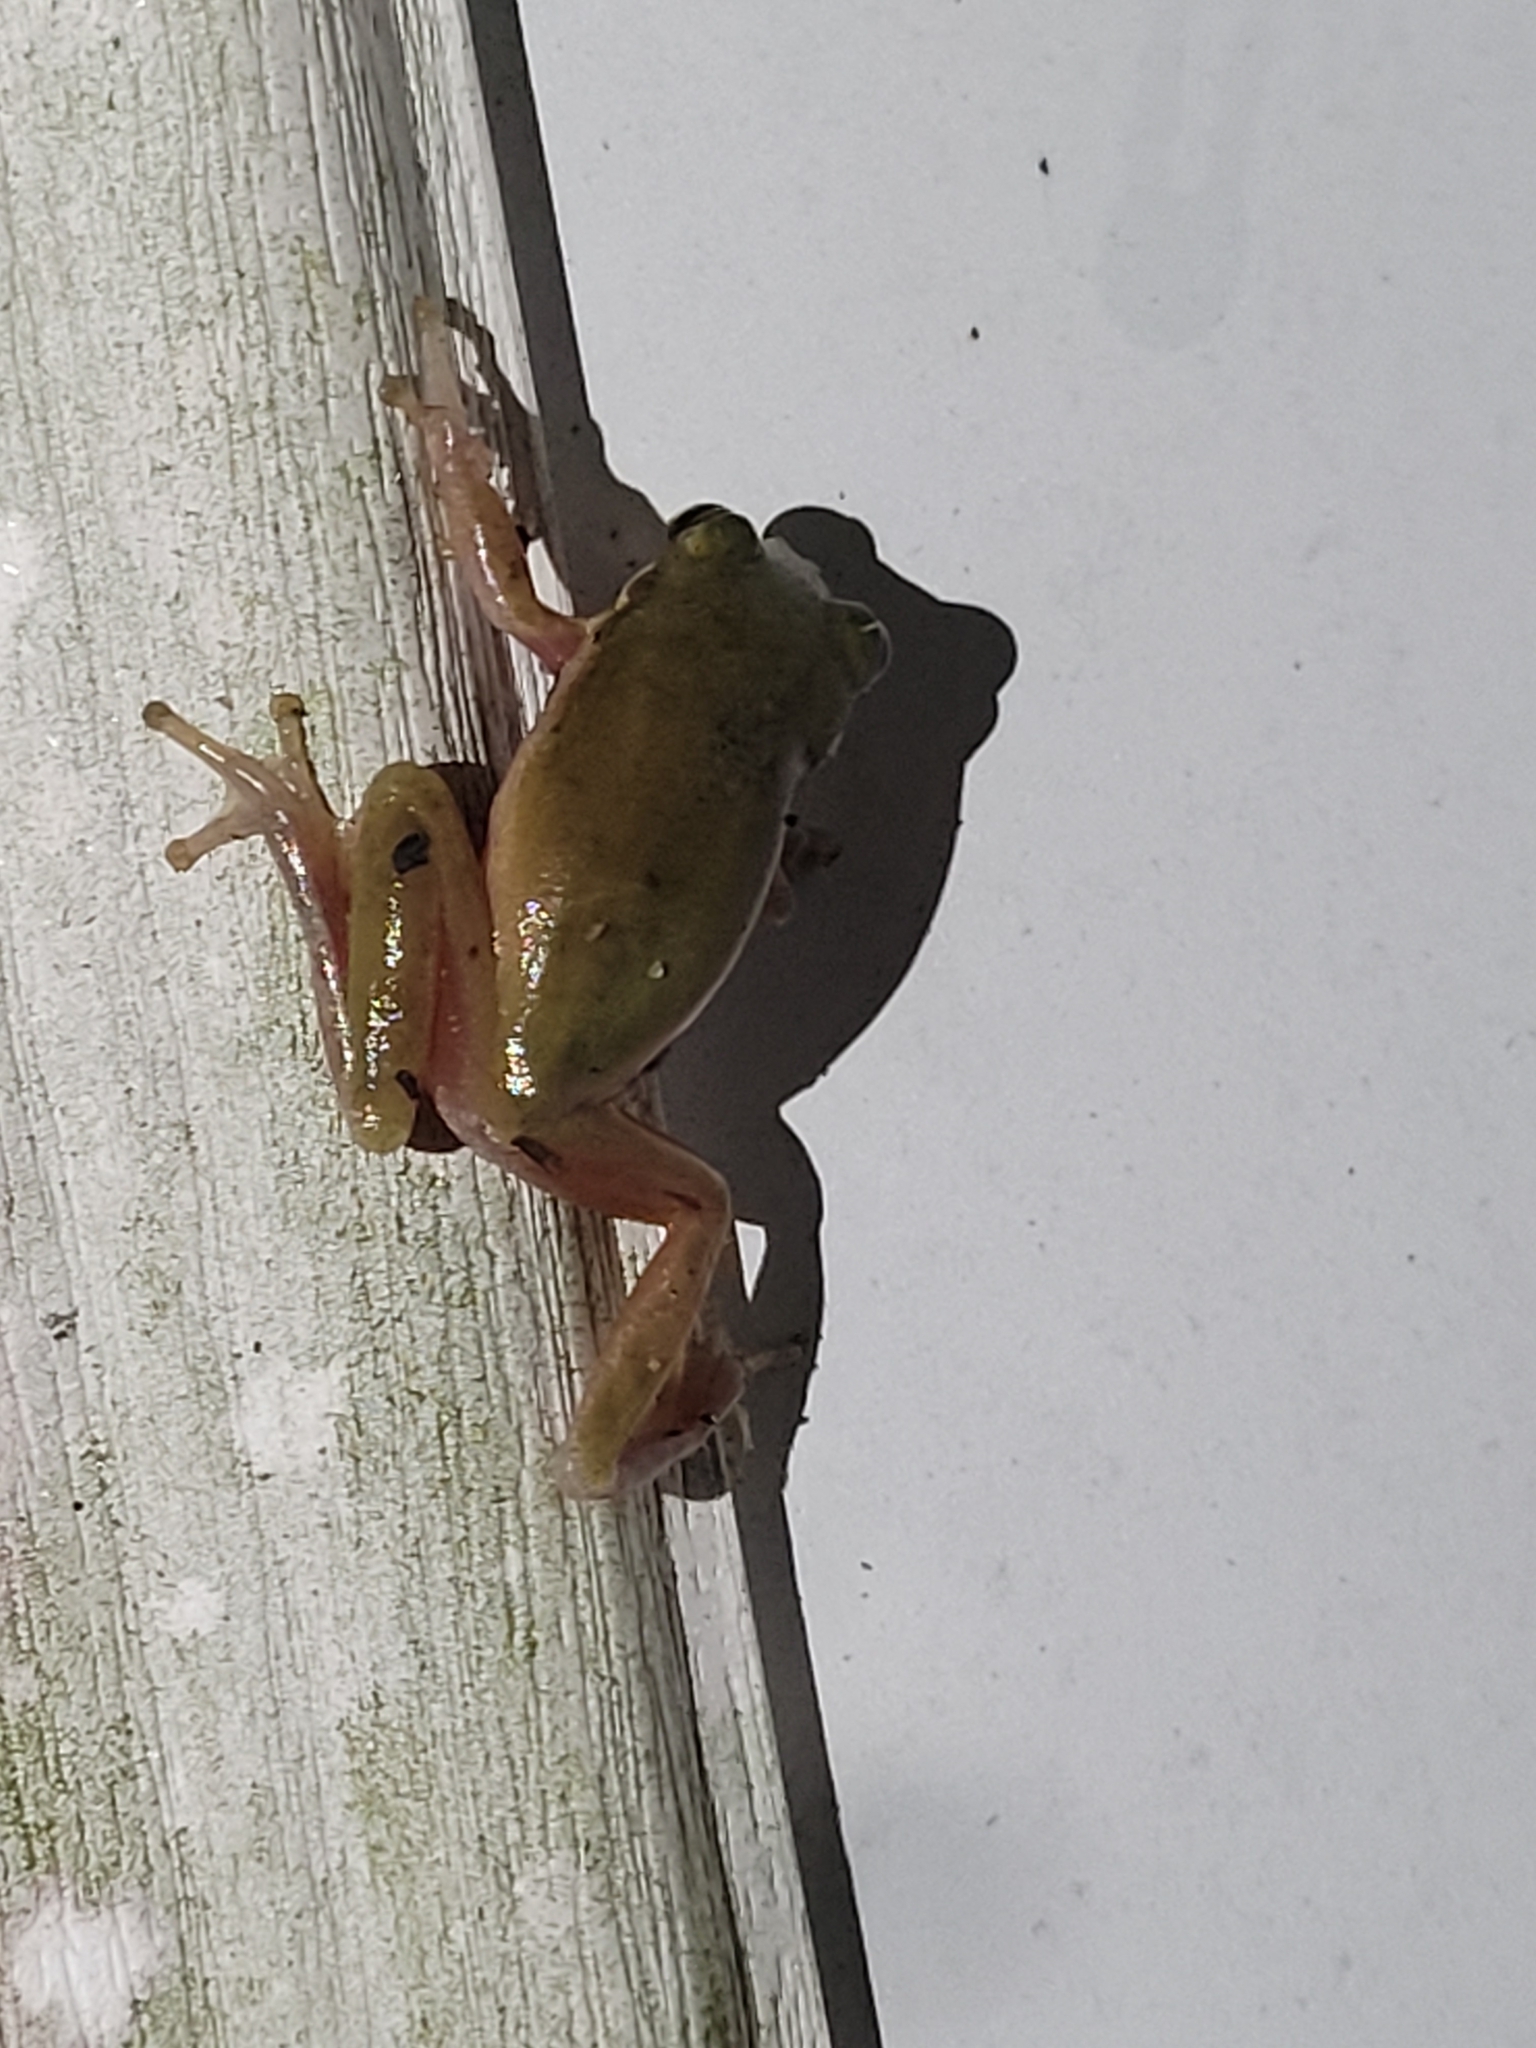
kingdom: Animalia
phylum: Chordata
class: Amphibia
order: Anura
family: Hylidae
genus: Dryophytes
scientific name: Dryophytes squirellus
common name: Squirrel treefrog
